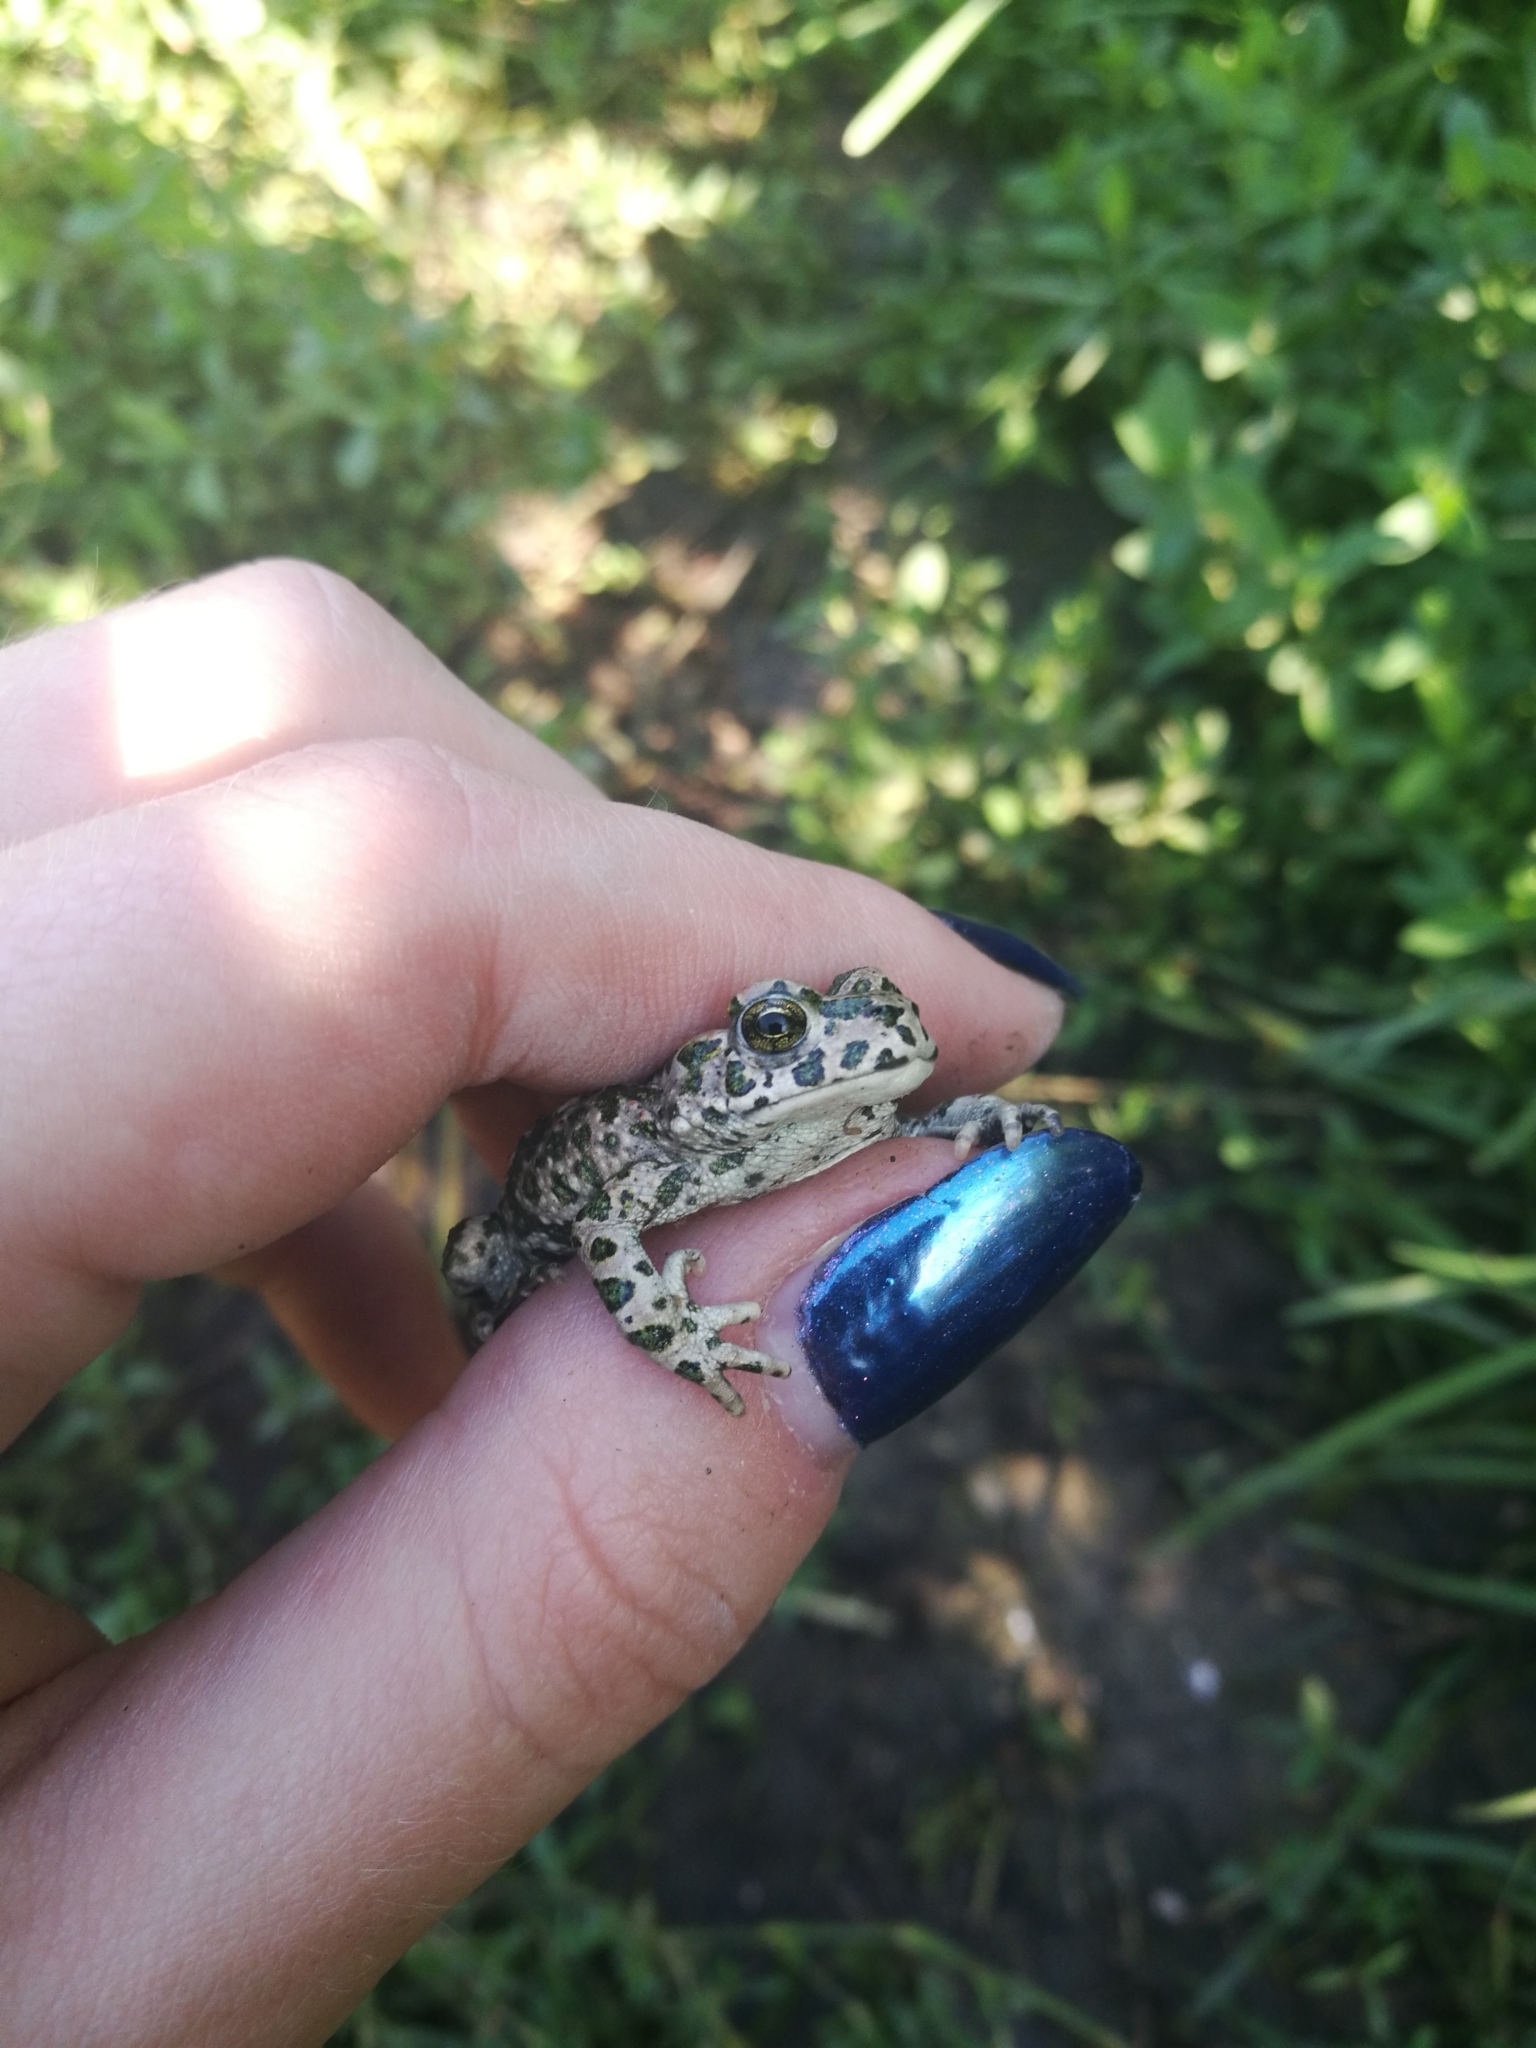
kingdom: Animalia
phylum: Chordata
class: Amphibia
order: Anura
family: Bufonidae
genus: Bufotes
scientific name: Bufotes viridis
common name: European green toad
